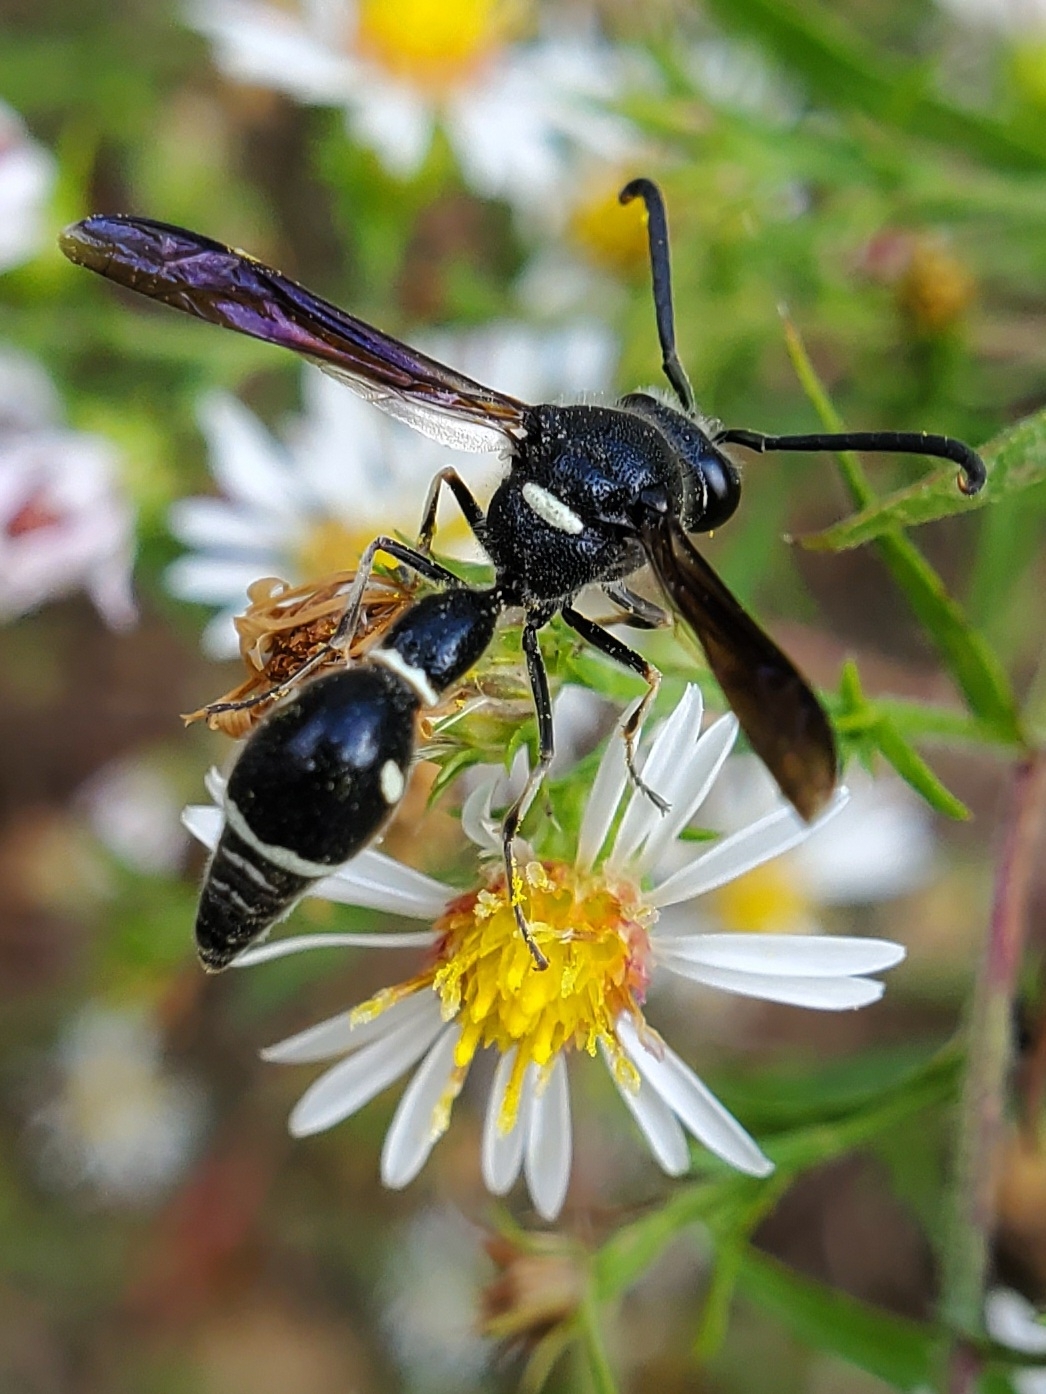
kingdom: Animalia
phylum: Arthropoda
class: Insecta
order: Hymenoptera
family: Vespidae
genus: Eumenes
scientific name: Eumenes fraternus
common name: Fraternal potter wasp
